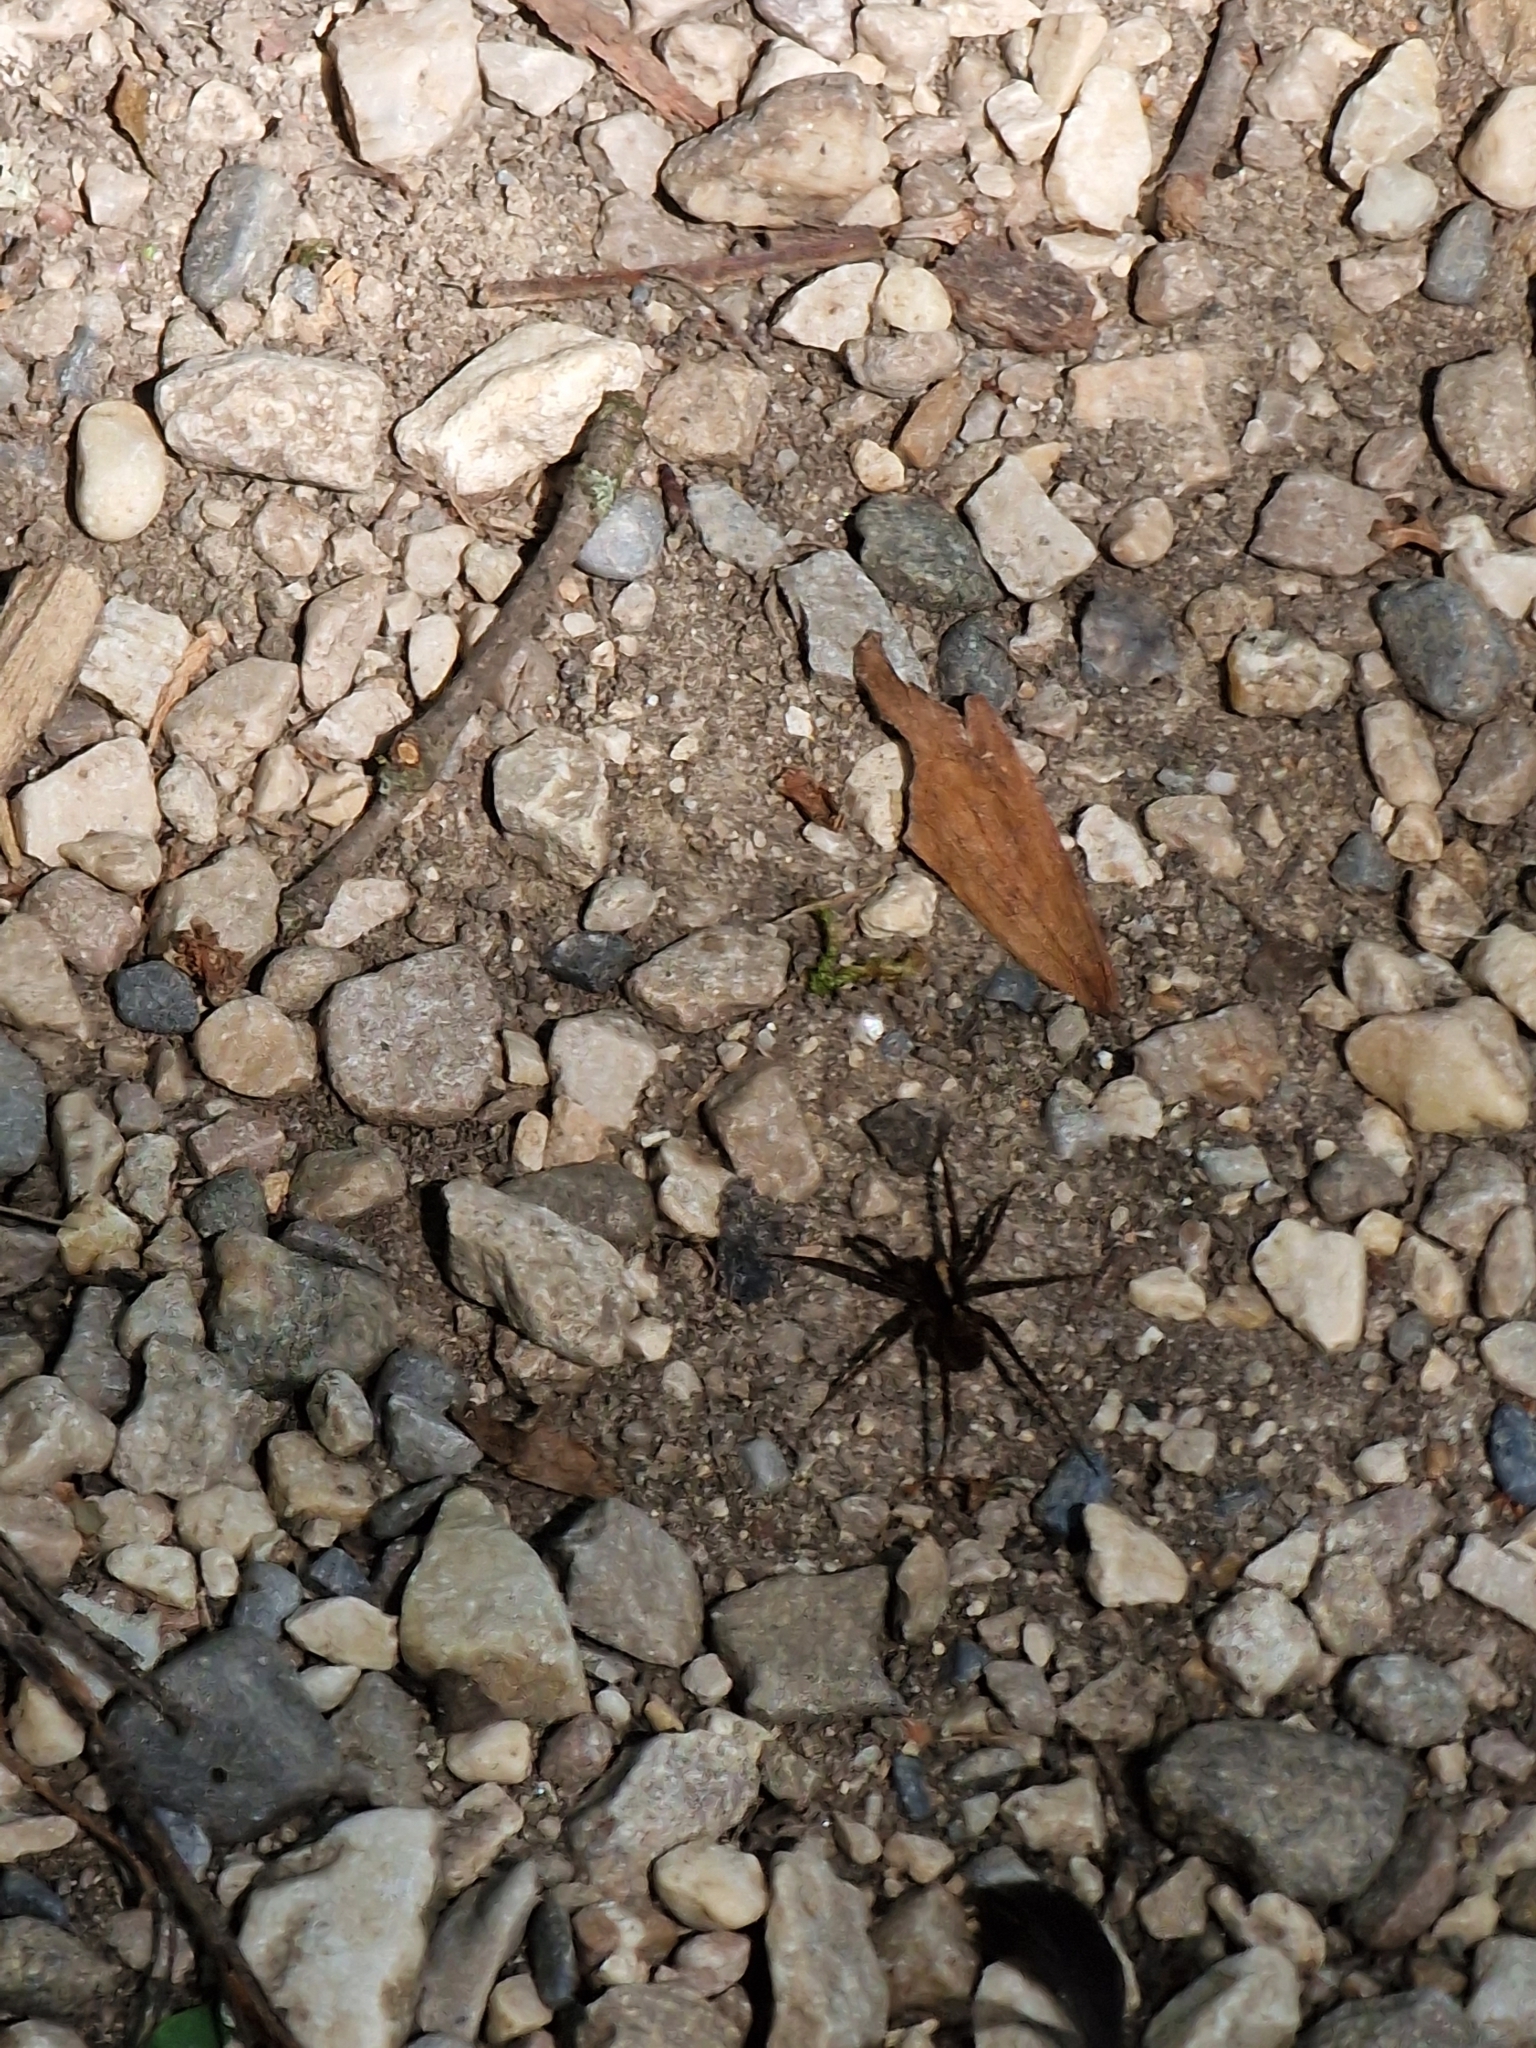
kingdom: Animalia
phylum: Arthropoda
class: Arachnida
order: Araneae
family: Lycosidae
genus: Pardosa
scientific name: Pardosa
